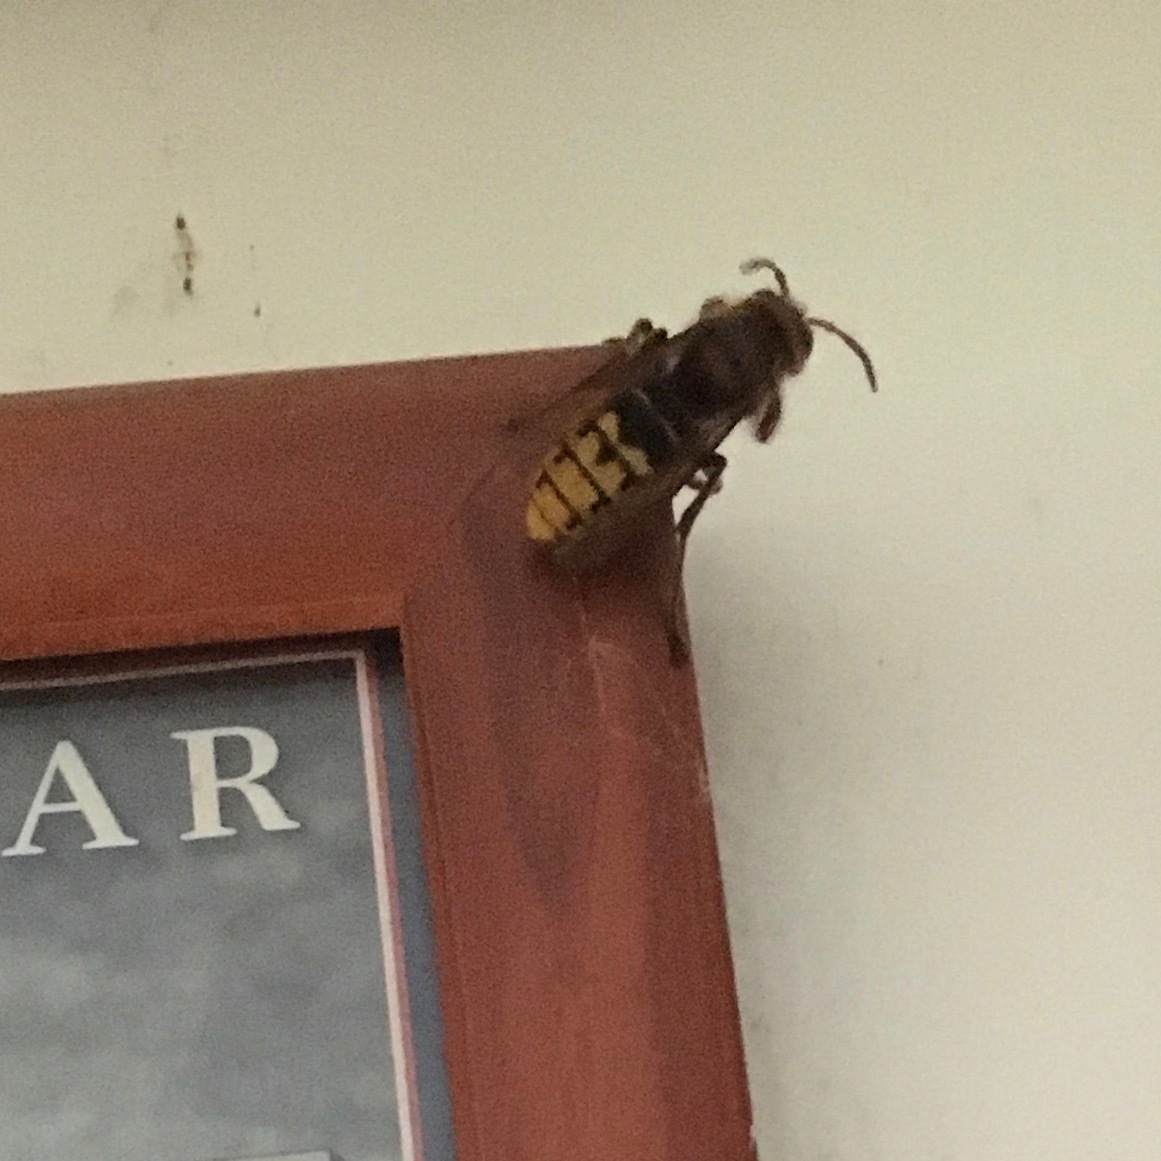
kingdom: Animalia
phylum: Arthropoda
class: Insecta
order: Hymenoptera
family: Vespidae
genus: Vespa
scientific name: Vespa crabro
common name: Hornet
